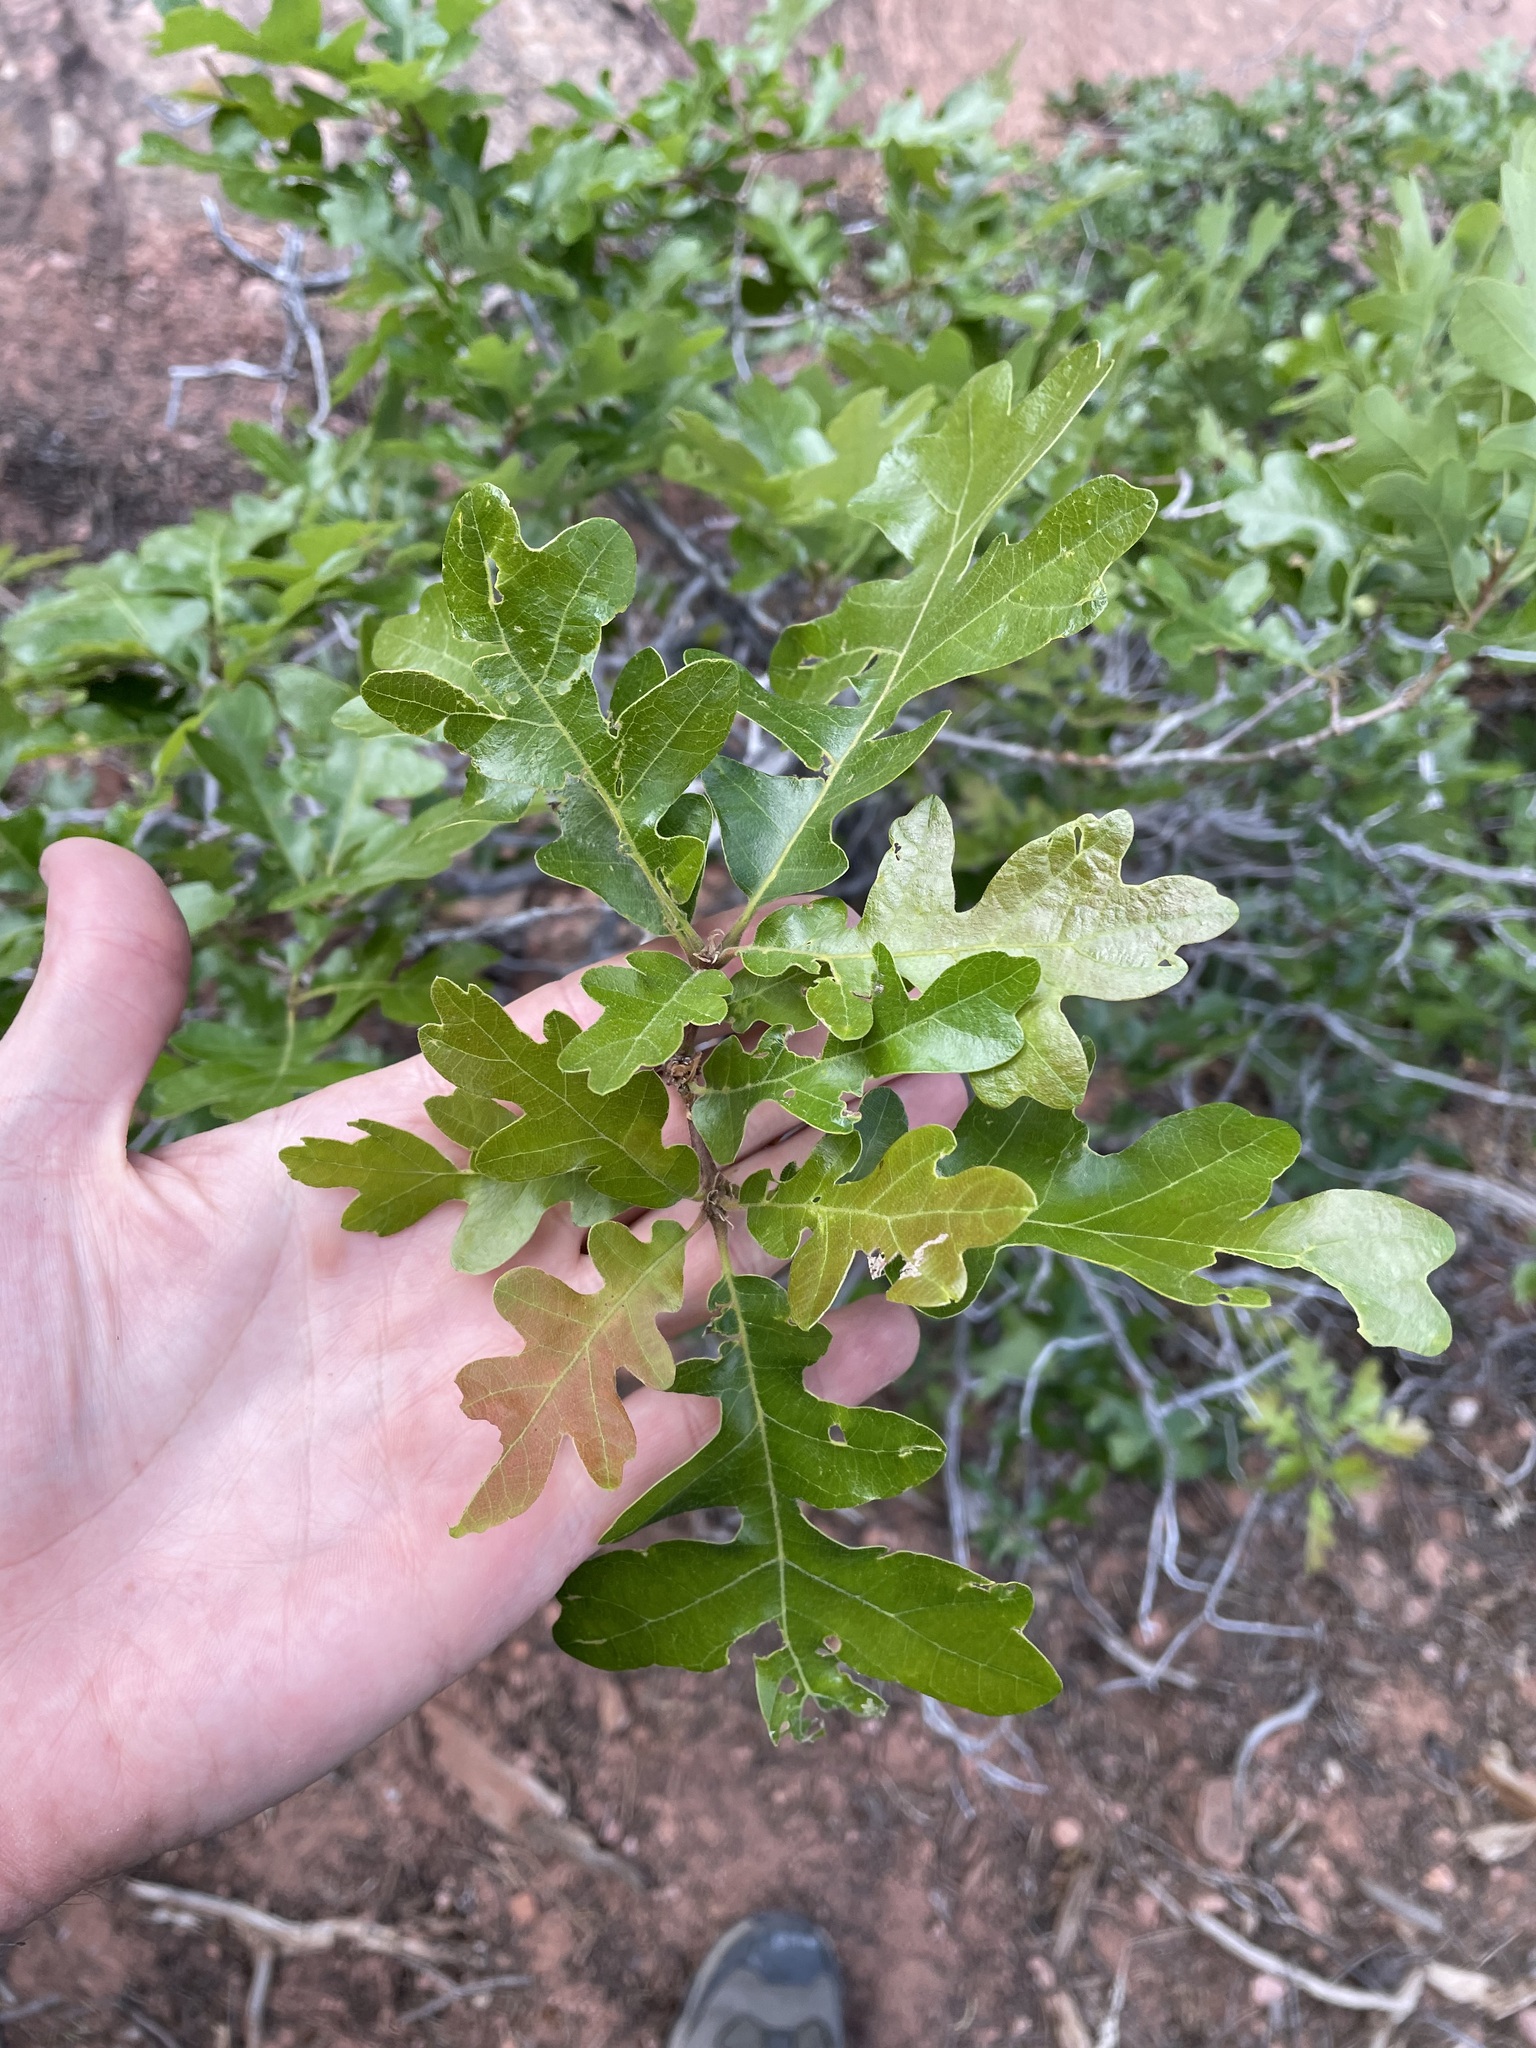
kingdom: Plantae
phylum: Tracheophyta
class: Magnoliopsida
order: Fagales
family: Fagaceae
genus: Quercus
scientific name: Quercus gambelii
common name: Gambel oak
